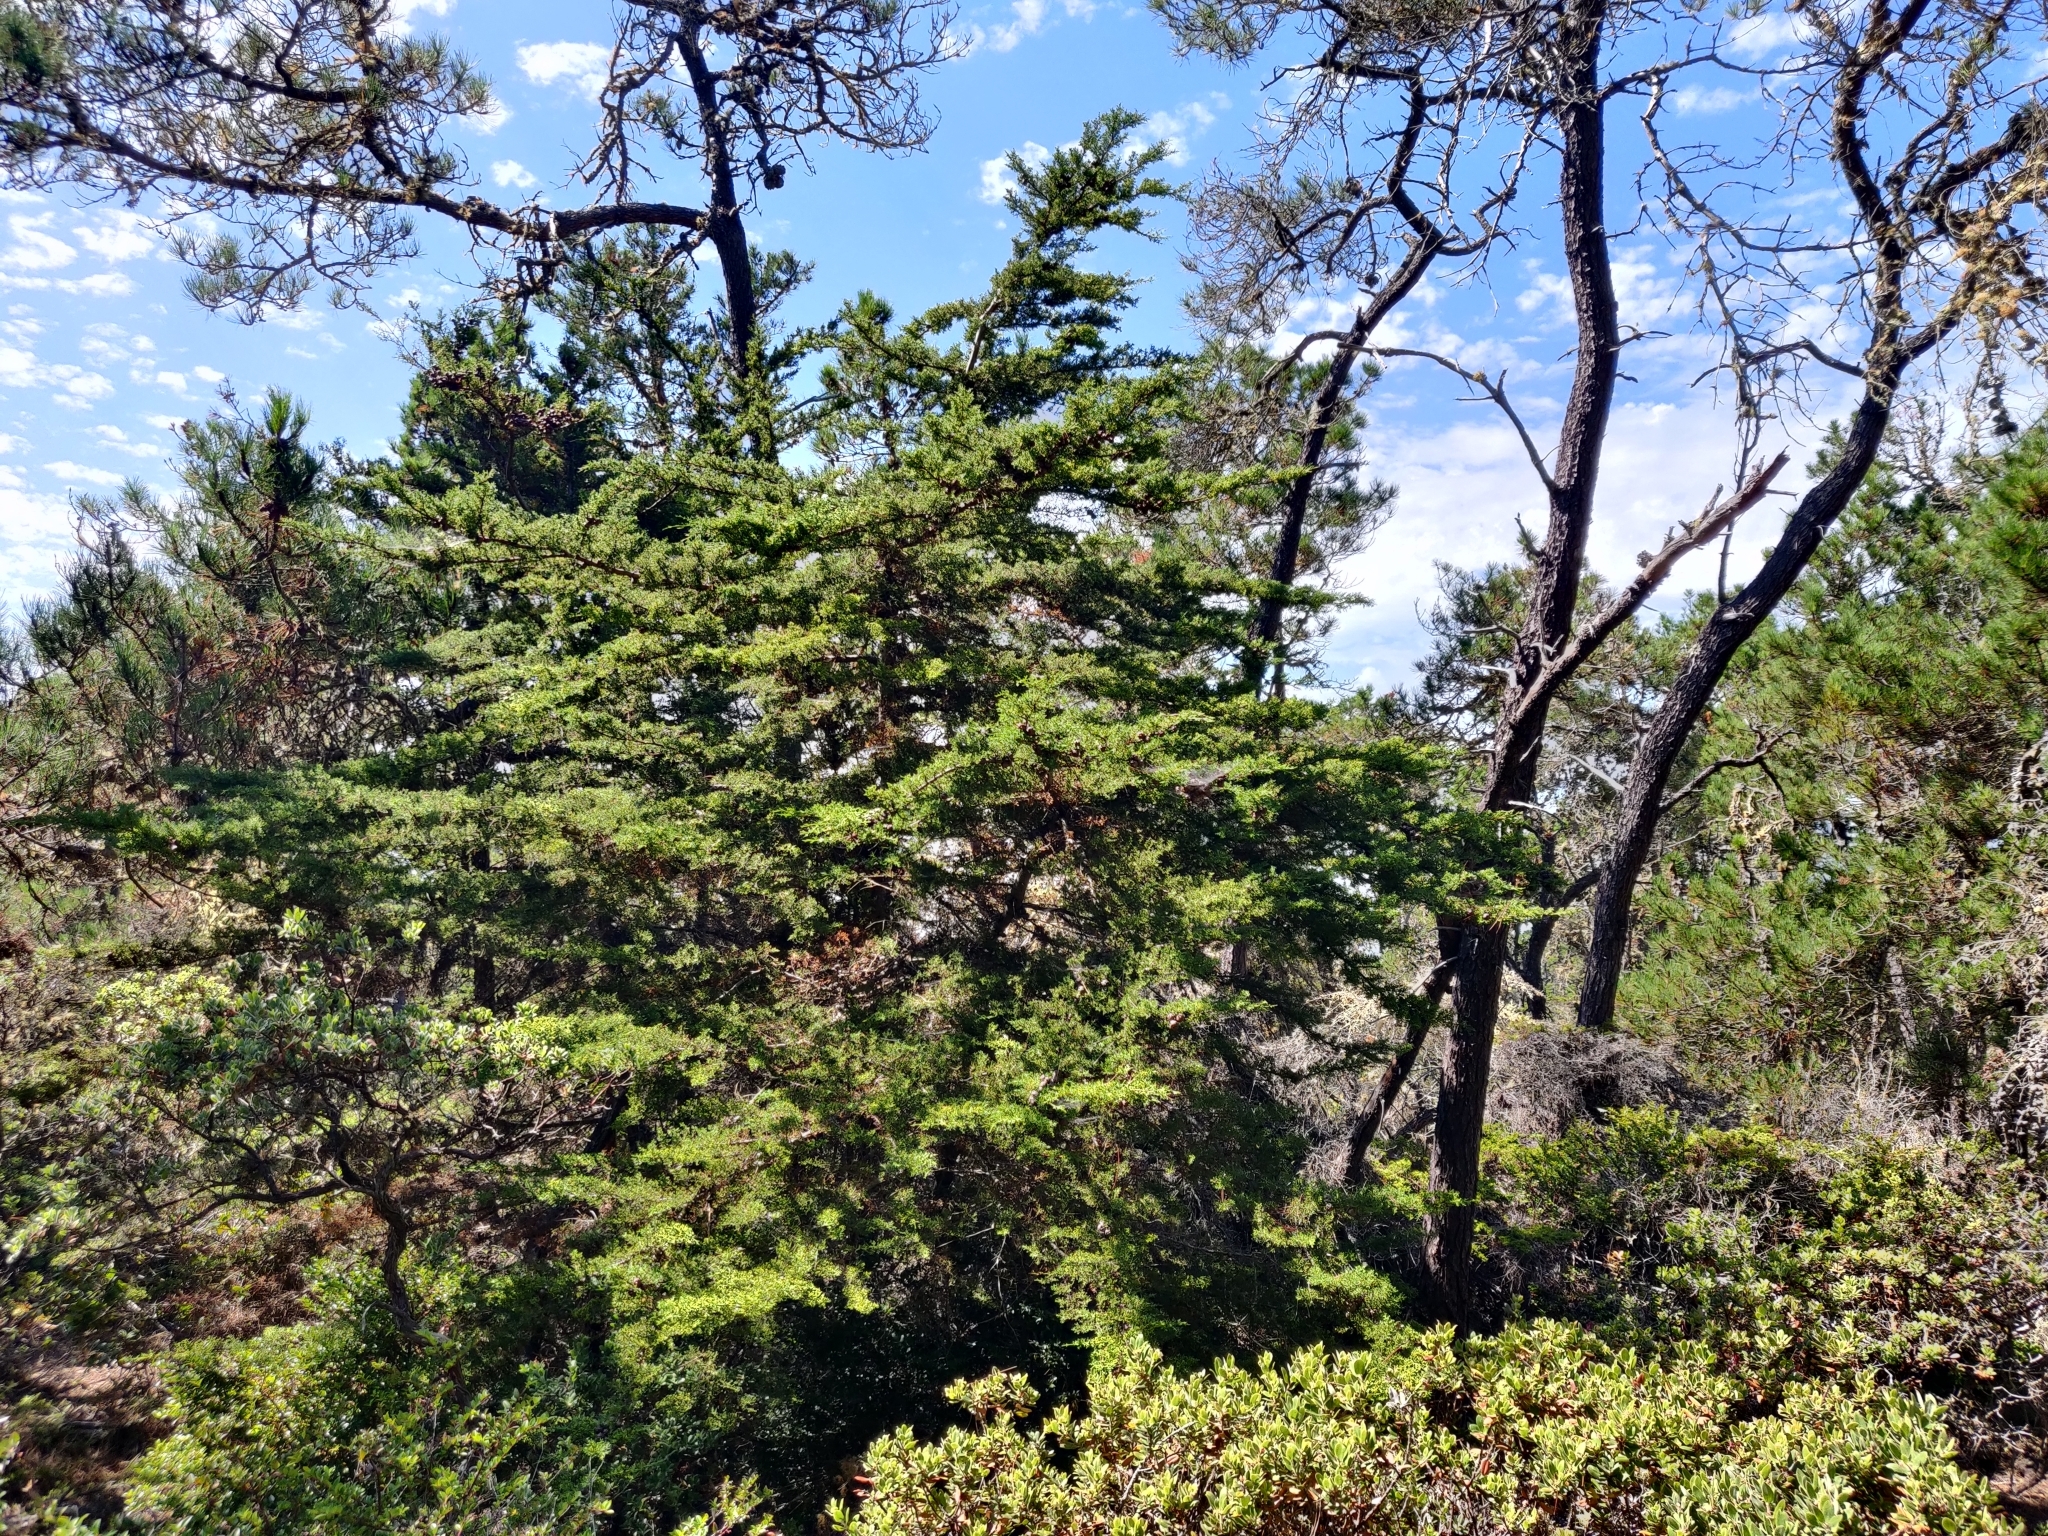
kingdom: Plantae
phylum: Tracheophyta
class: Pinopsida
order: Pinales
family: Cupressaceae
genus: Cupressus
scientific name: Cupressus goveniana
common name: Gowen cypress
